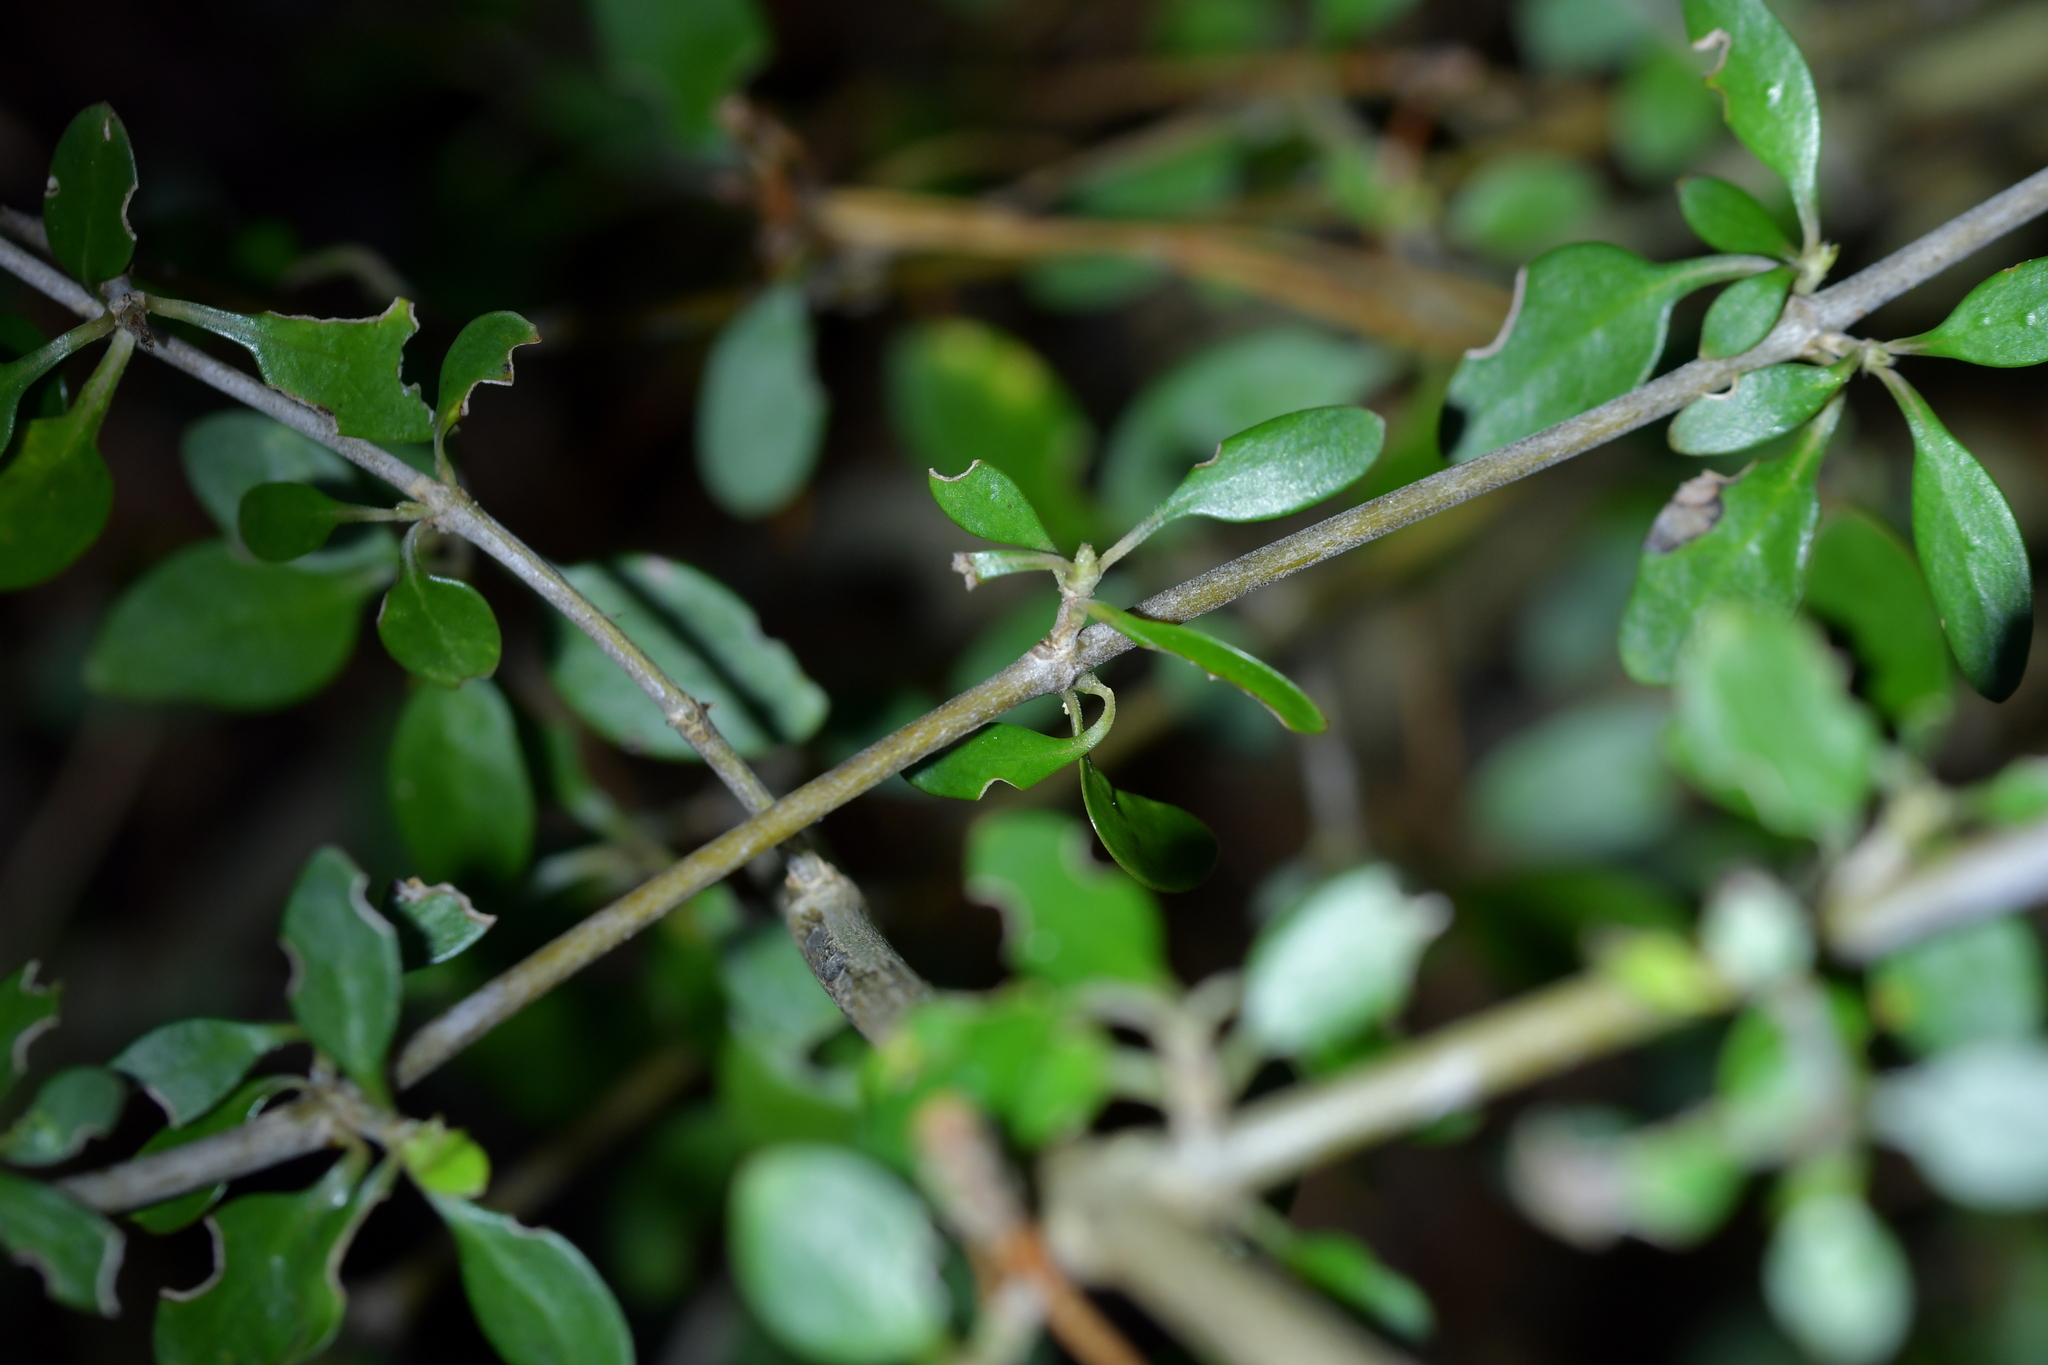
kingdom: Plantae
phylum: Tracheophyta
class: Magnoliopsida
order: Gentianales
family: Rubiaceae
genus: Coprosma
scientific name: Coprosma cunninghamii
